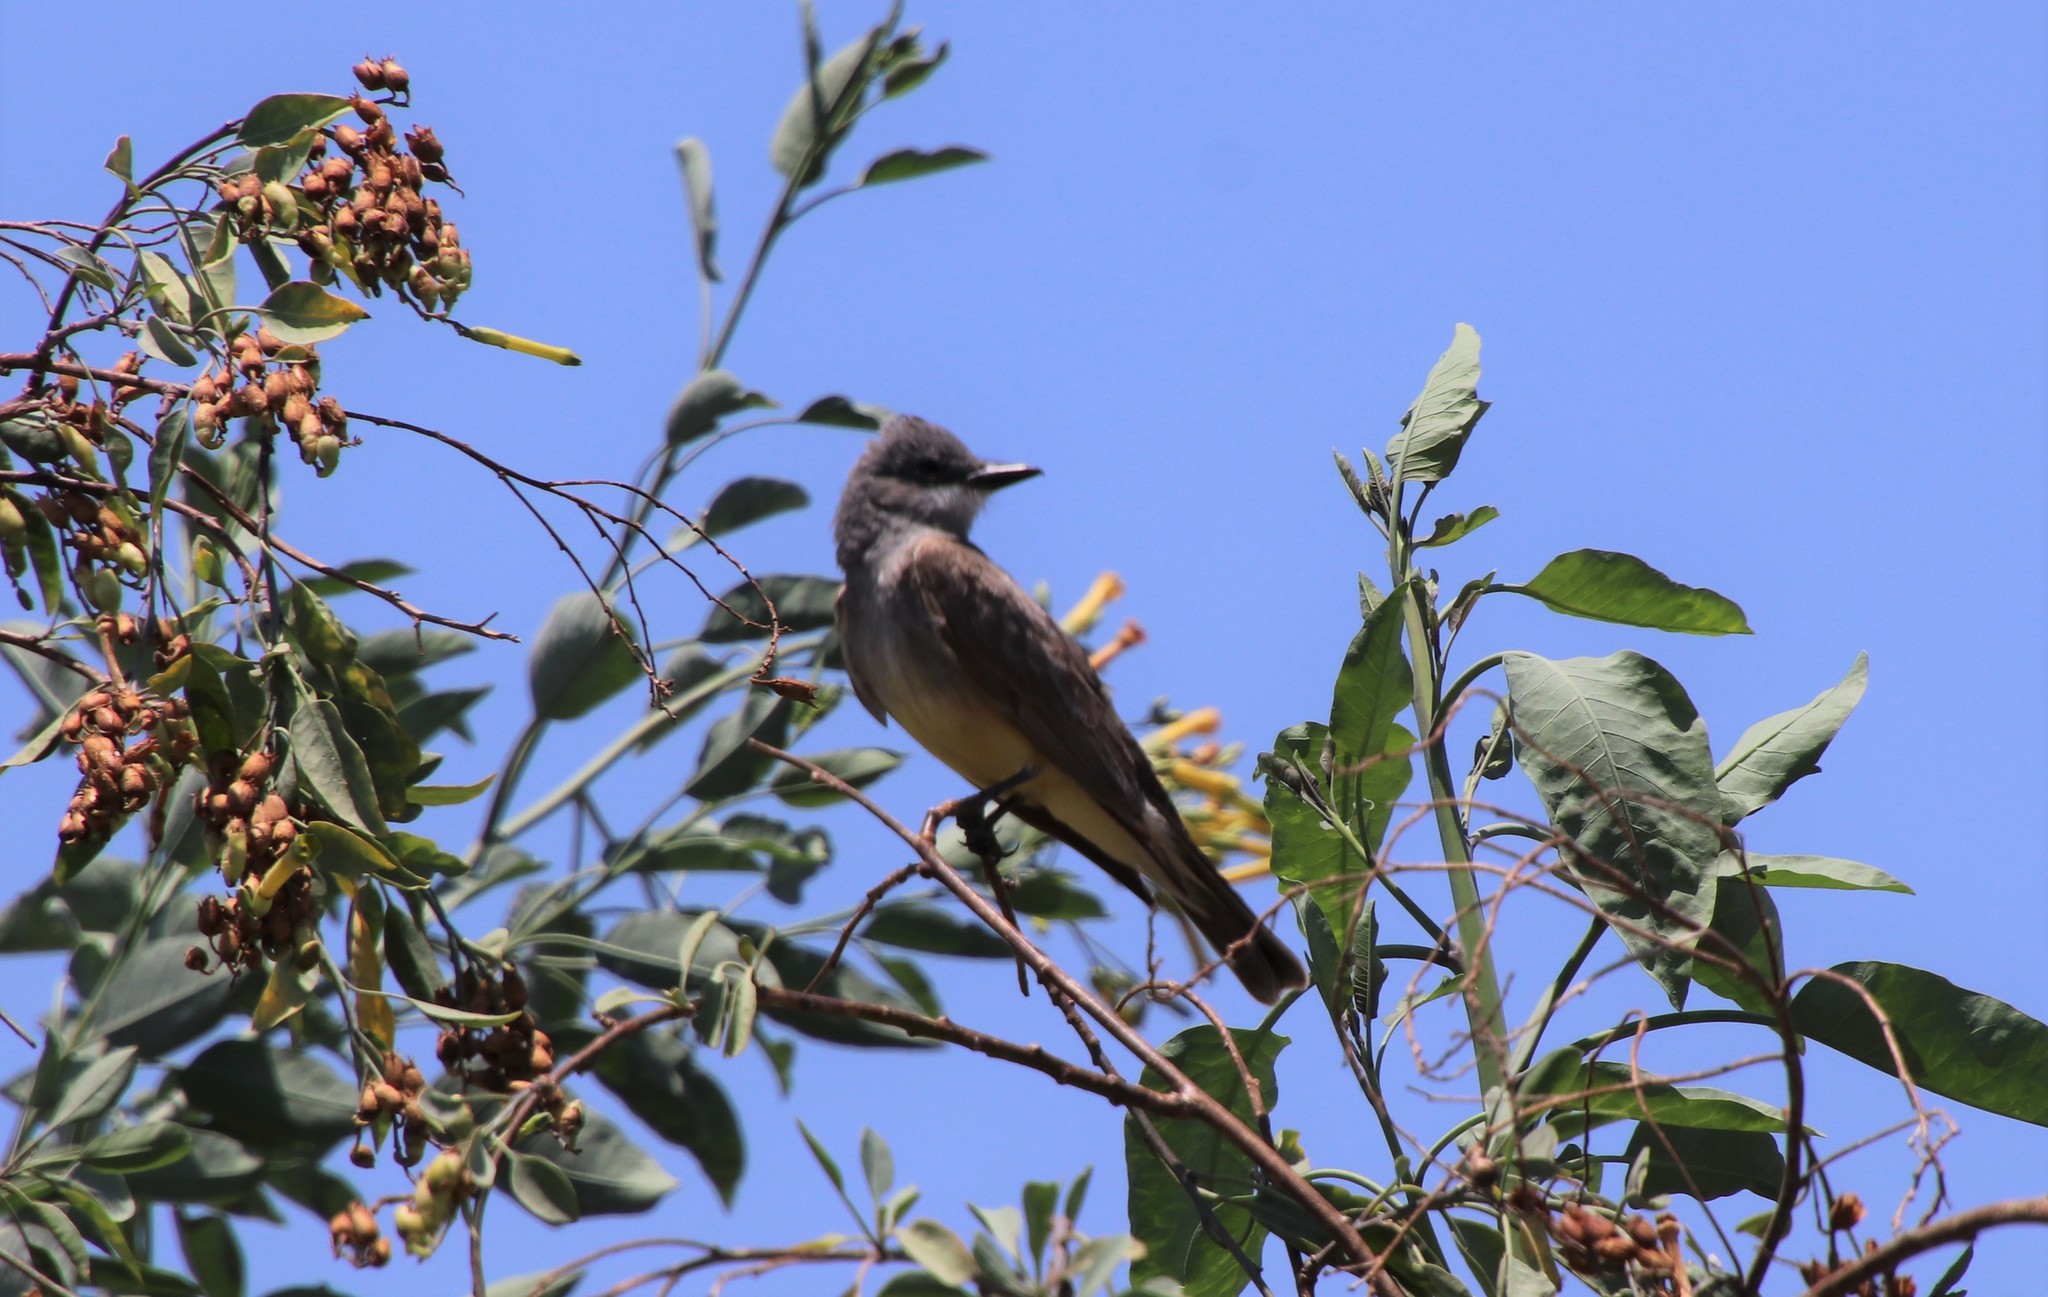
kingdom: Animalia
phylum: Chordata
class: Aves
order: Passeriformes
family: Tyrannidae
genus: Tyrannus
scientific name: Tyrannus vociferans
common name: Cassin's kingbird
